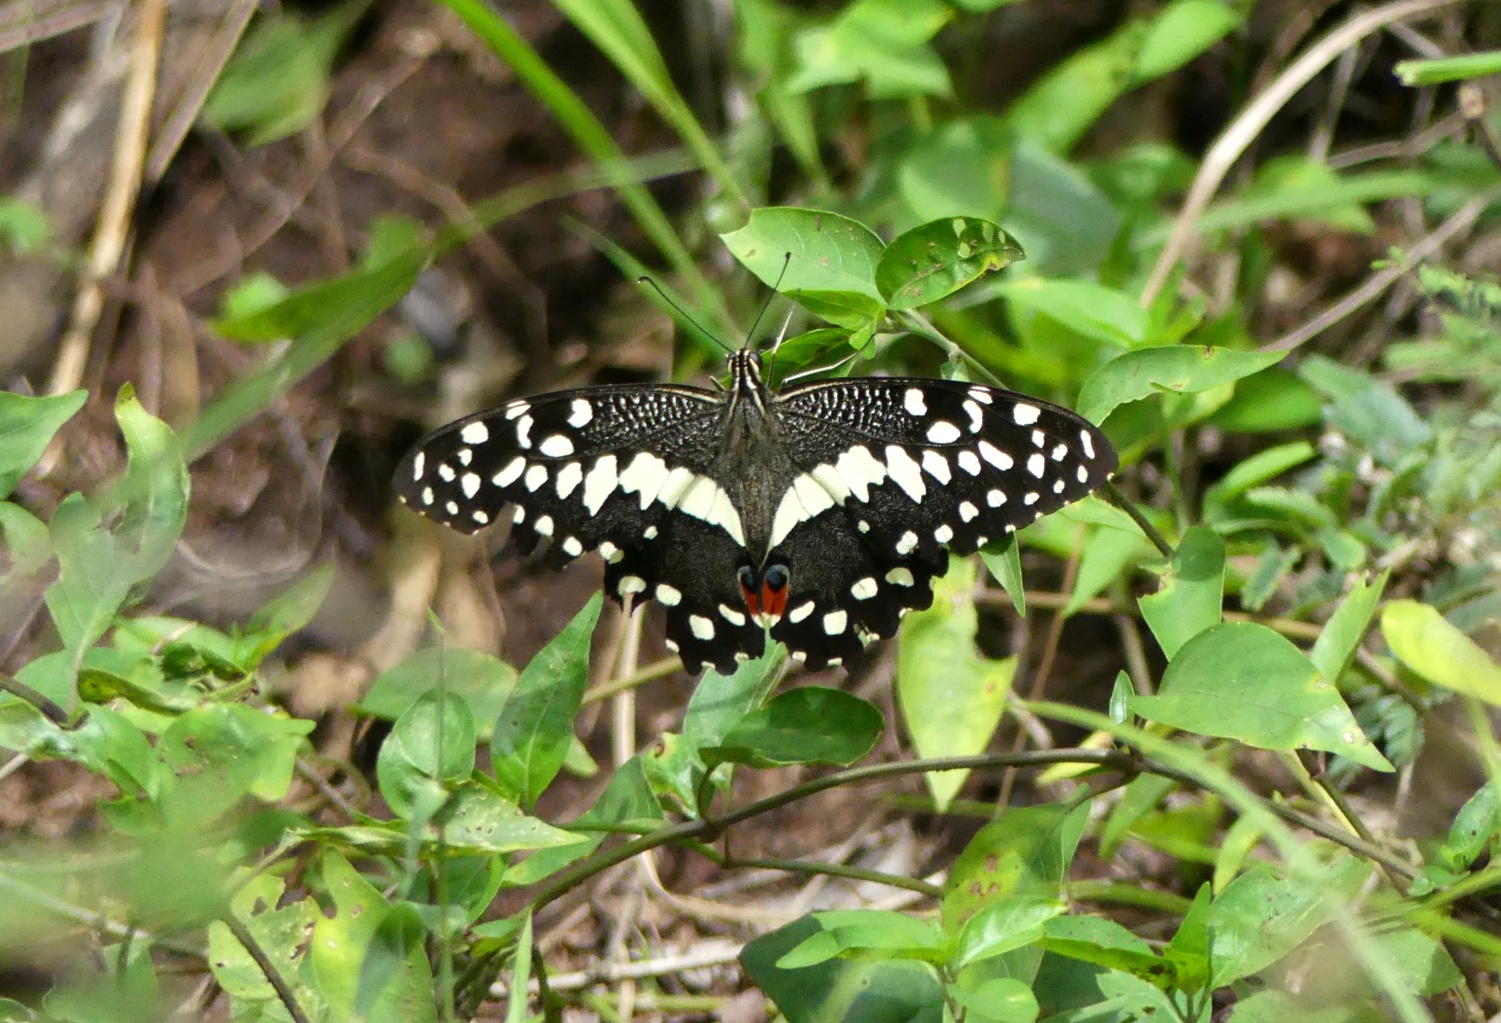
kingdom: Animalia
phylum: Arthropoda
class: Insecta
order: Lepidoptera
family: Papilionidae
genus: Papilio
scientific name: Papilio demodocus
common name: Christmas butterfly
